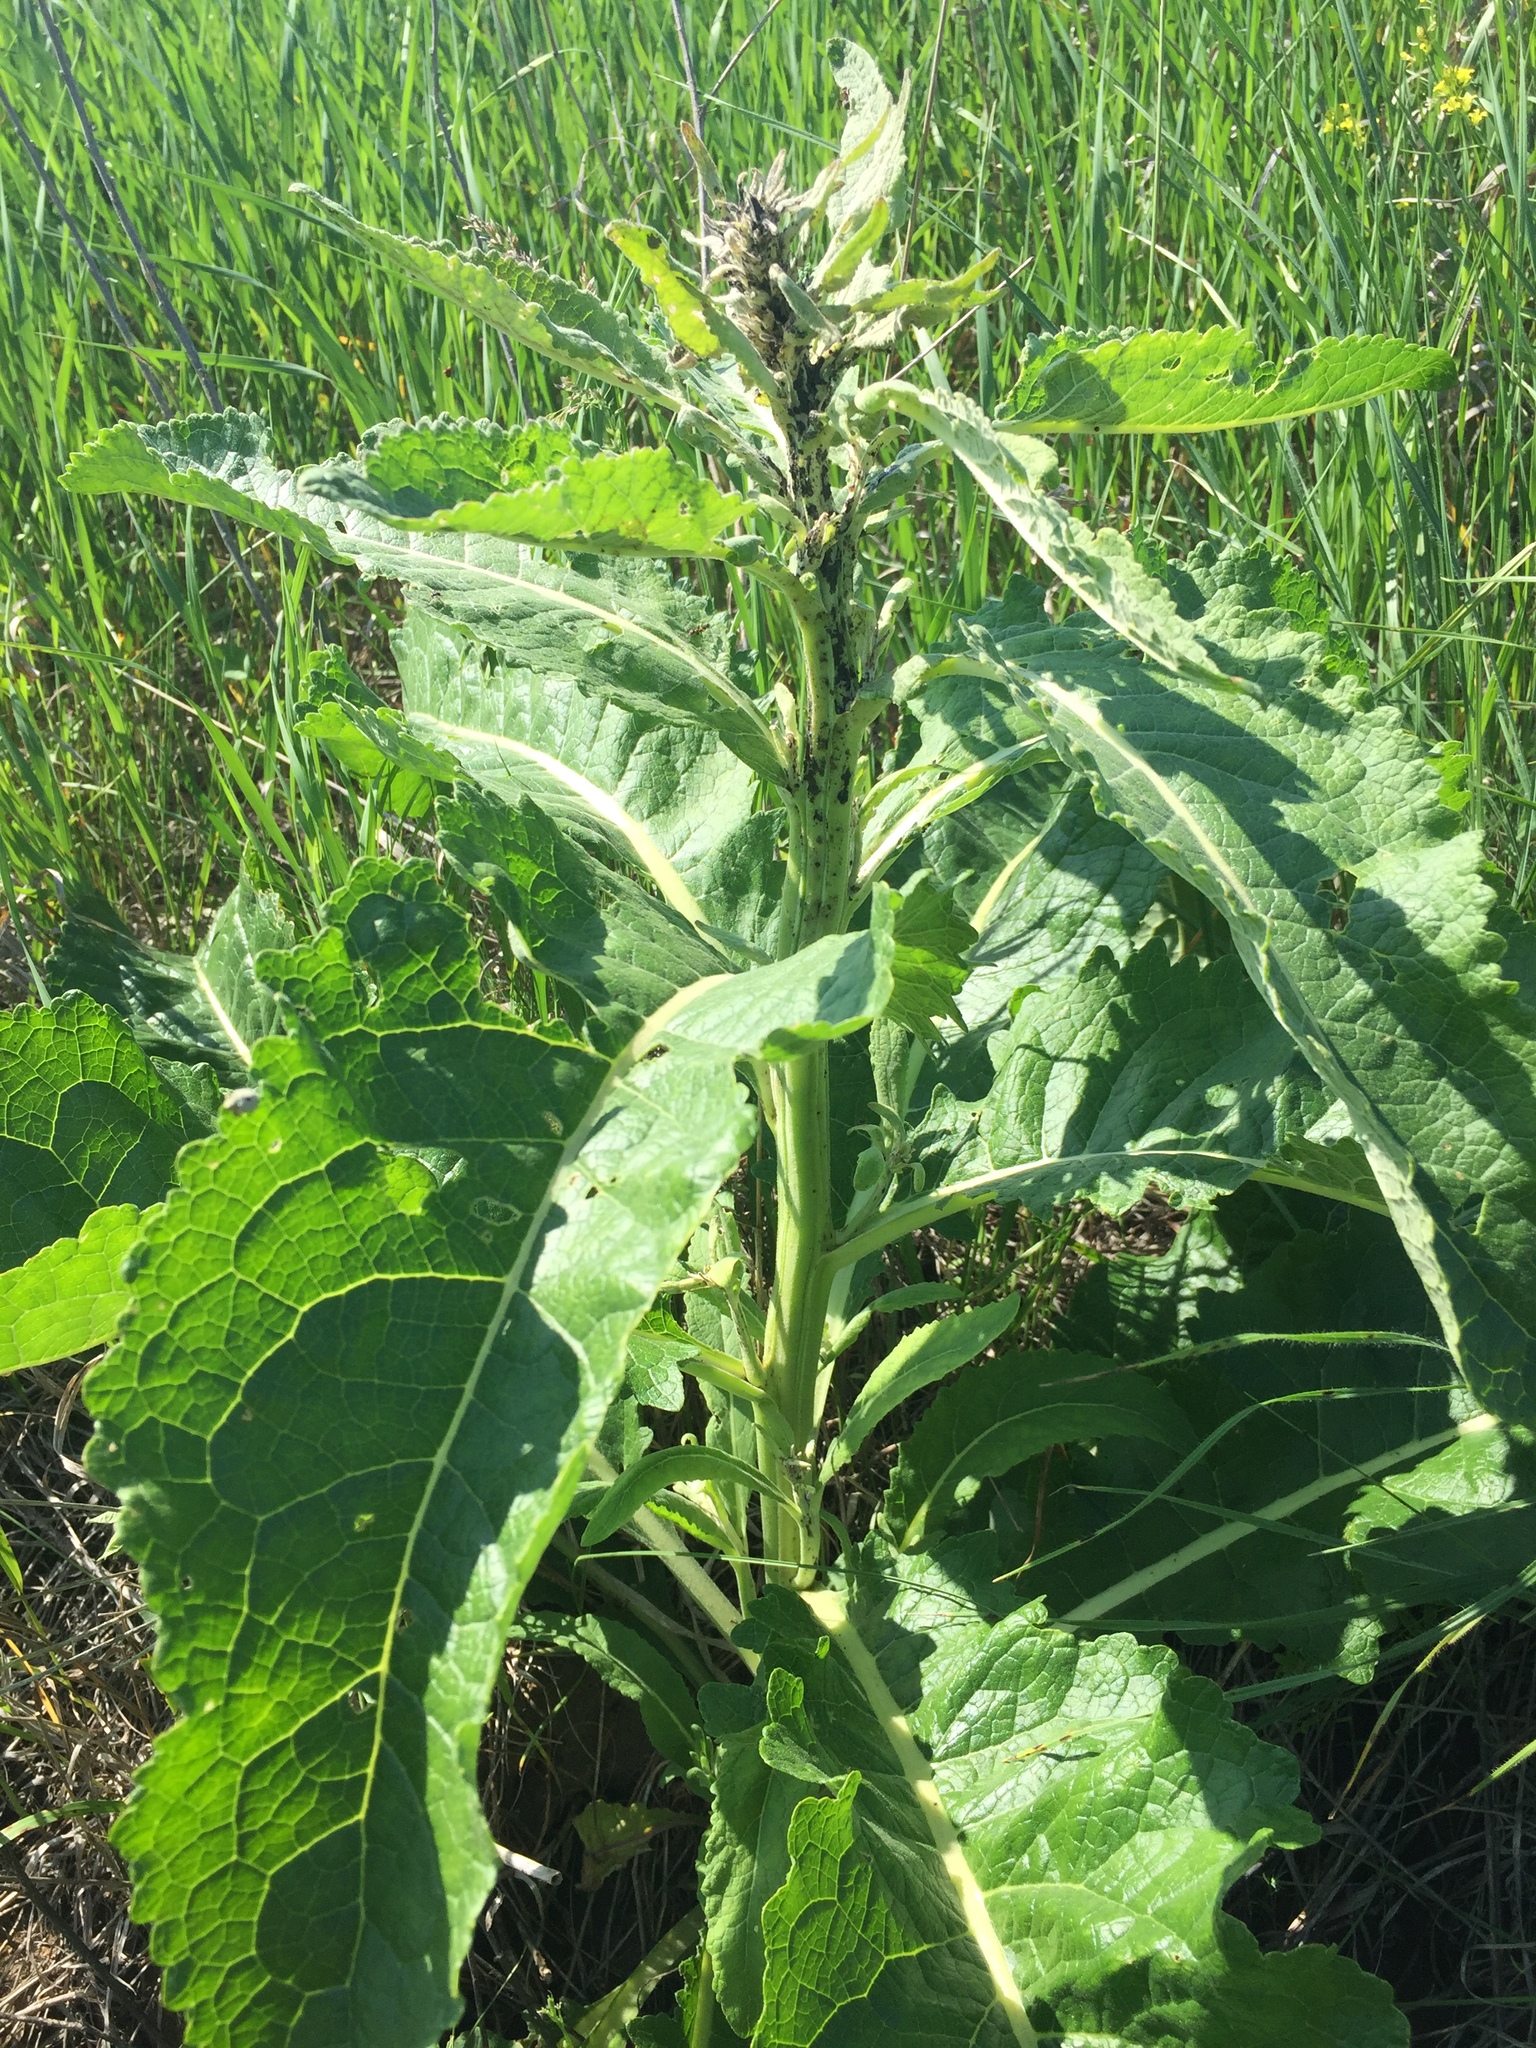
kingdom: Plantae
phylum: Tracheophyta
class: Magnoliopsida
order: Lamiales
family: Scrophulariaceae
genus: Verbascum
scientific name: Verbascum lychnitis
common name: White mullein
